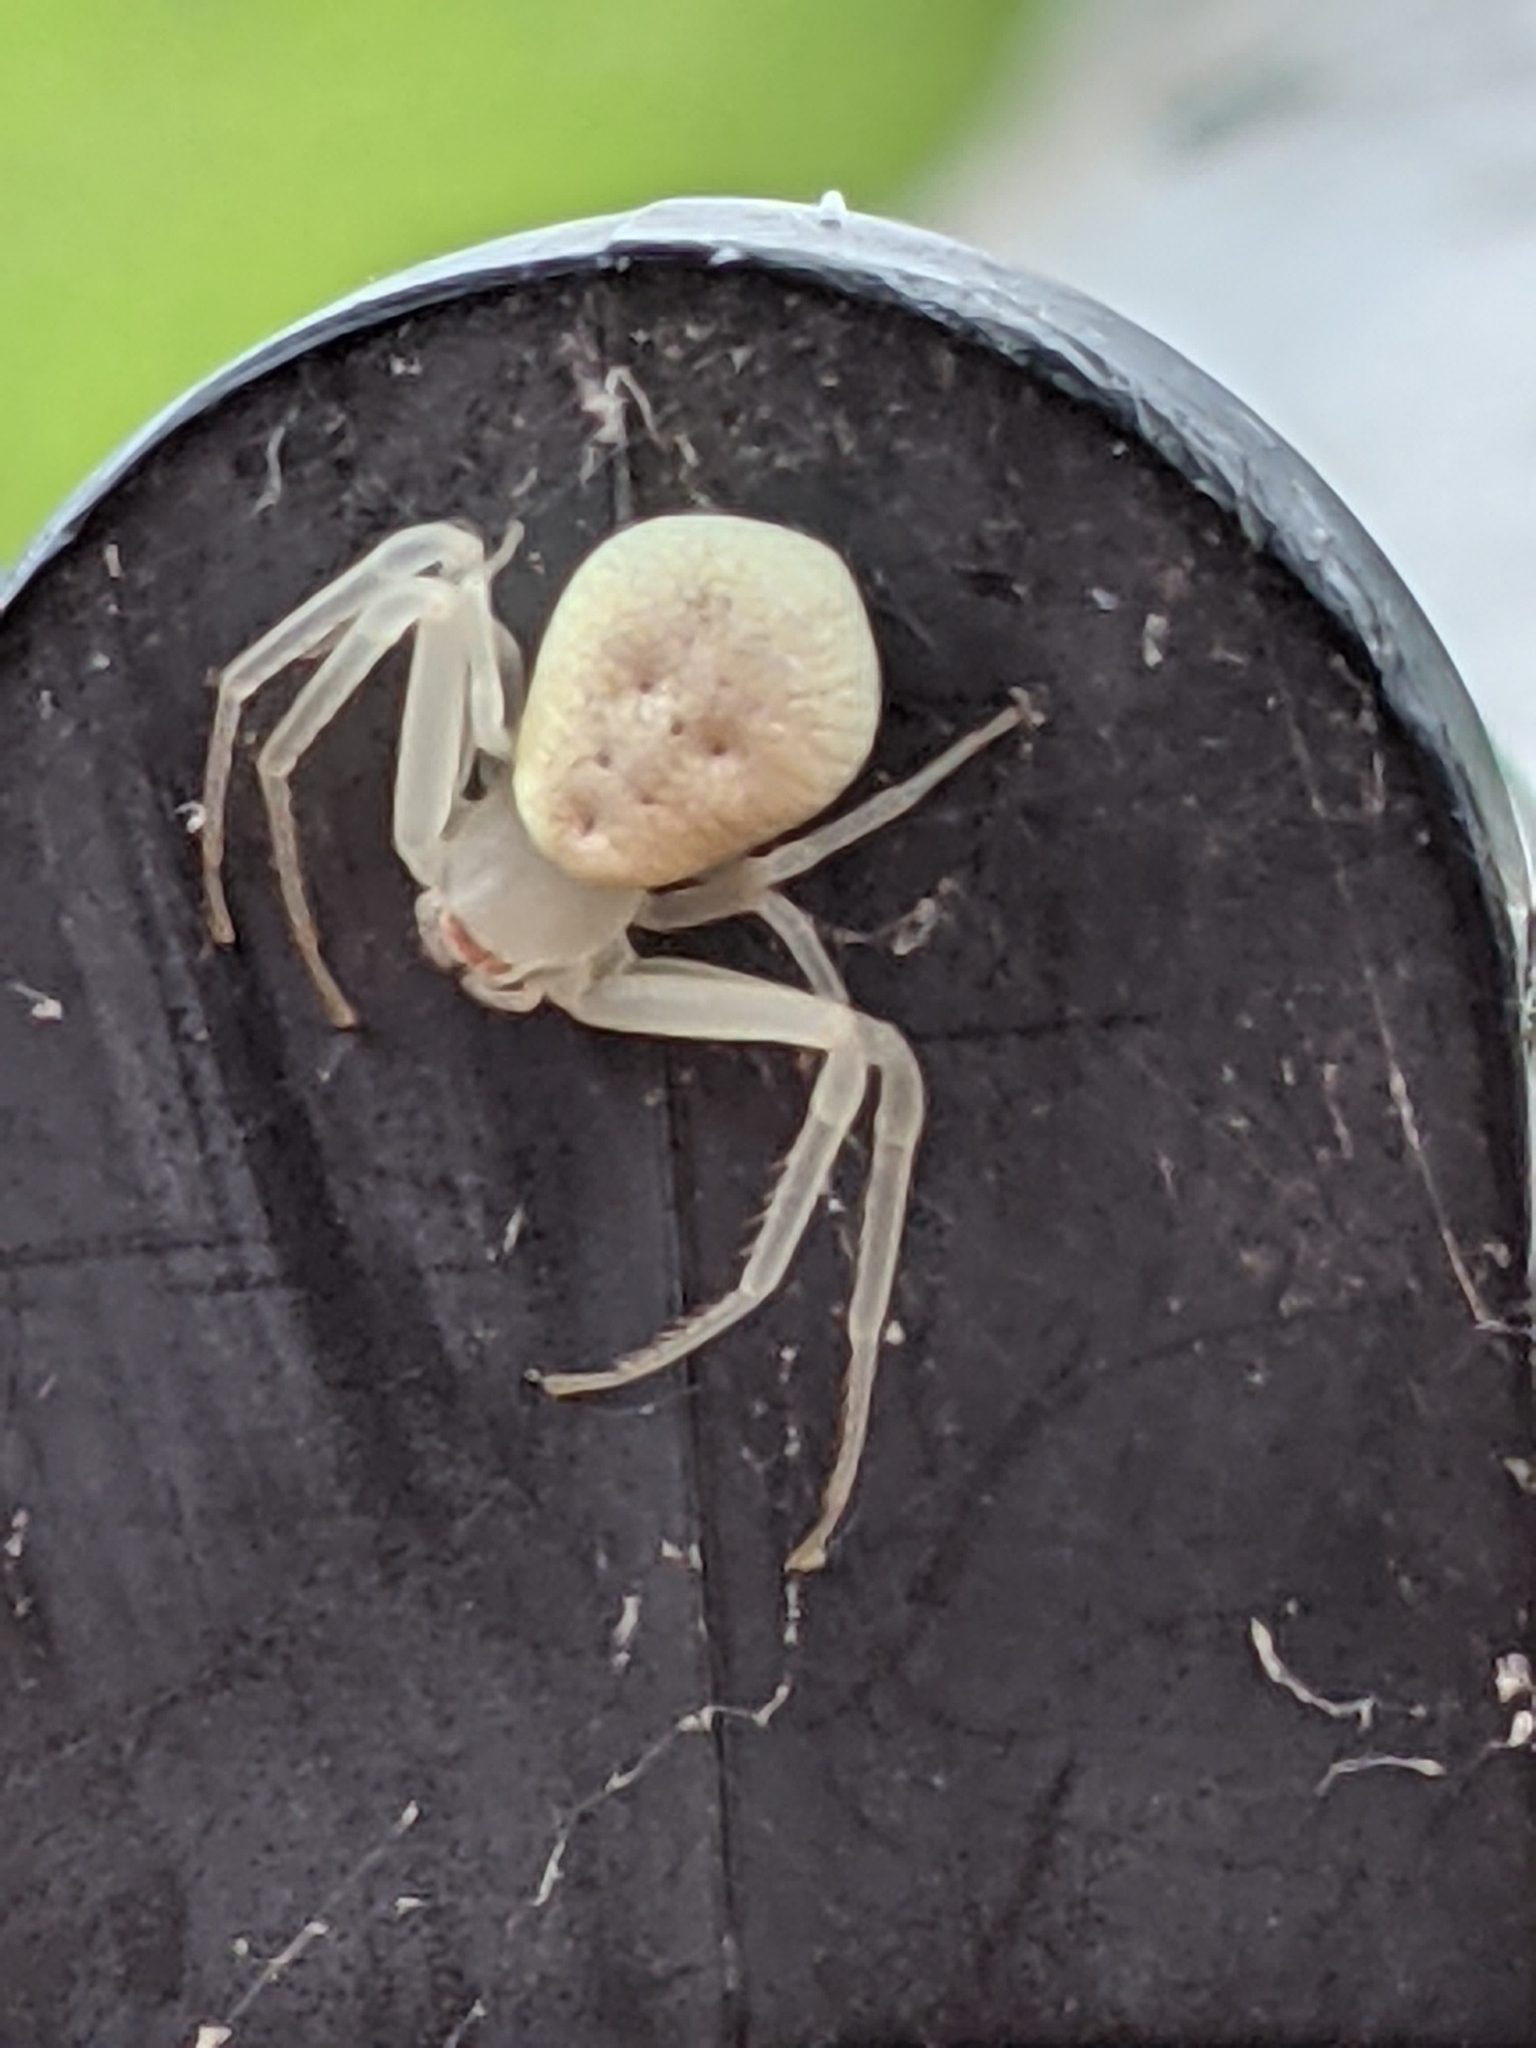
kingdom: Animalia
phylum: Arthropoda
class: Arachnida
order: Araneae
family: Thomisidae
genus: Misumessus
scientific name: Misumessus oblongus
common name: American green crab spider
